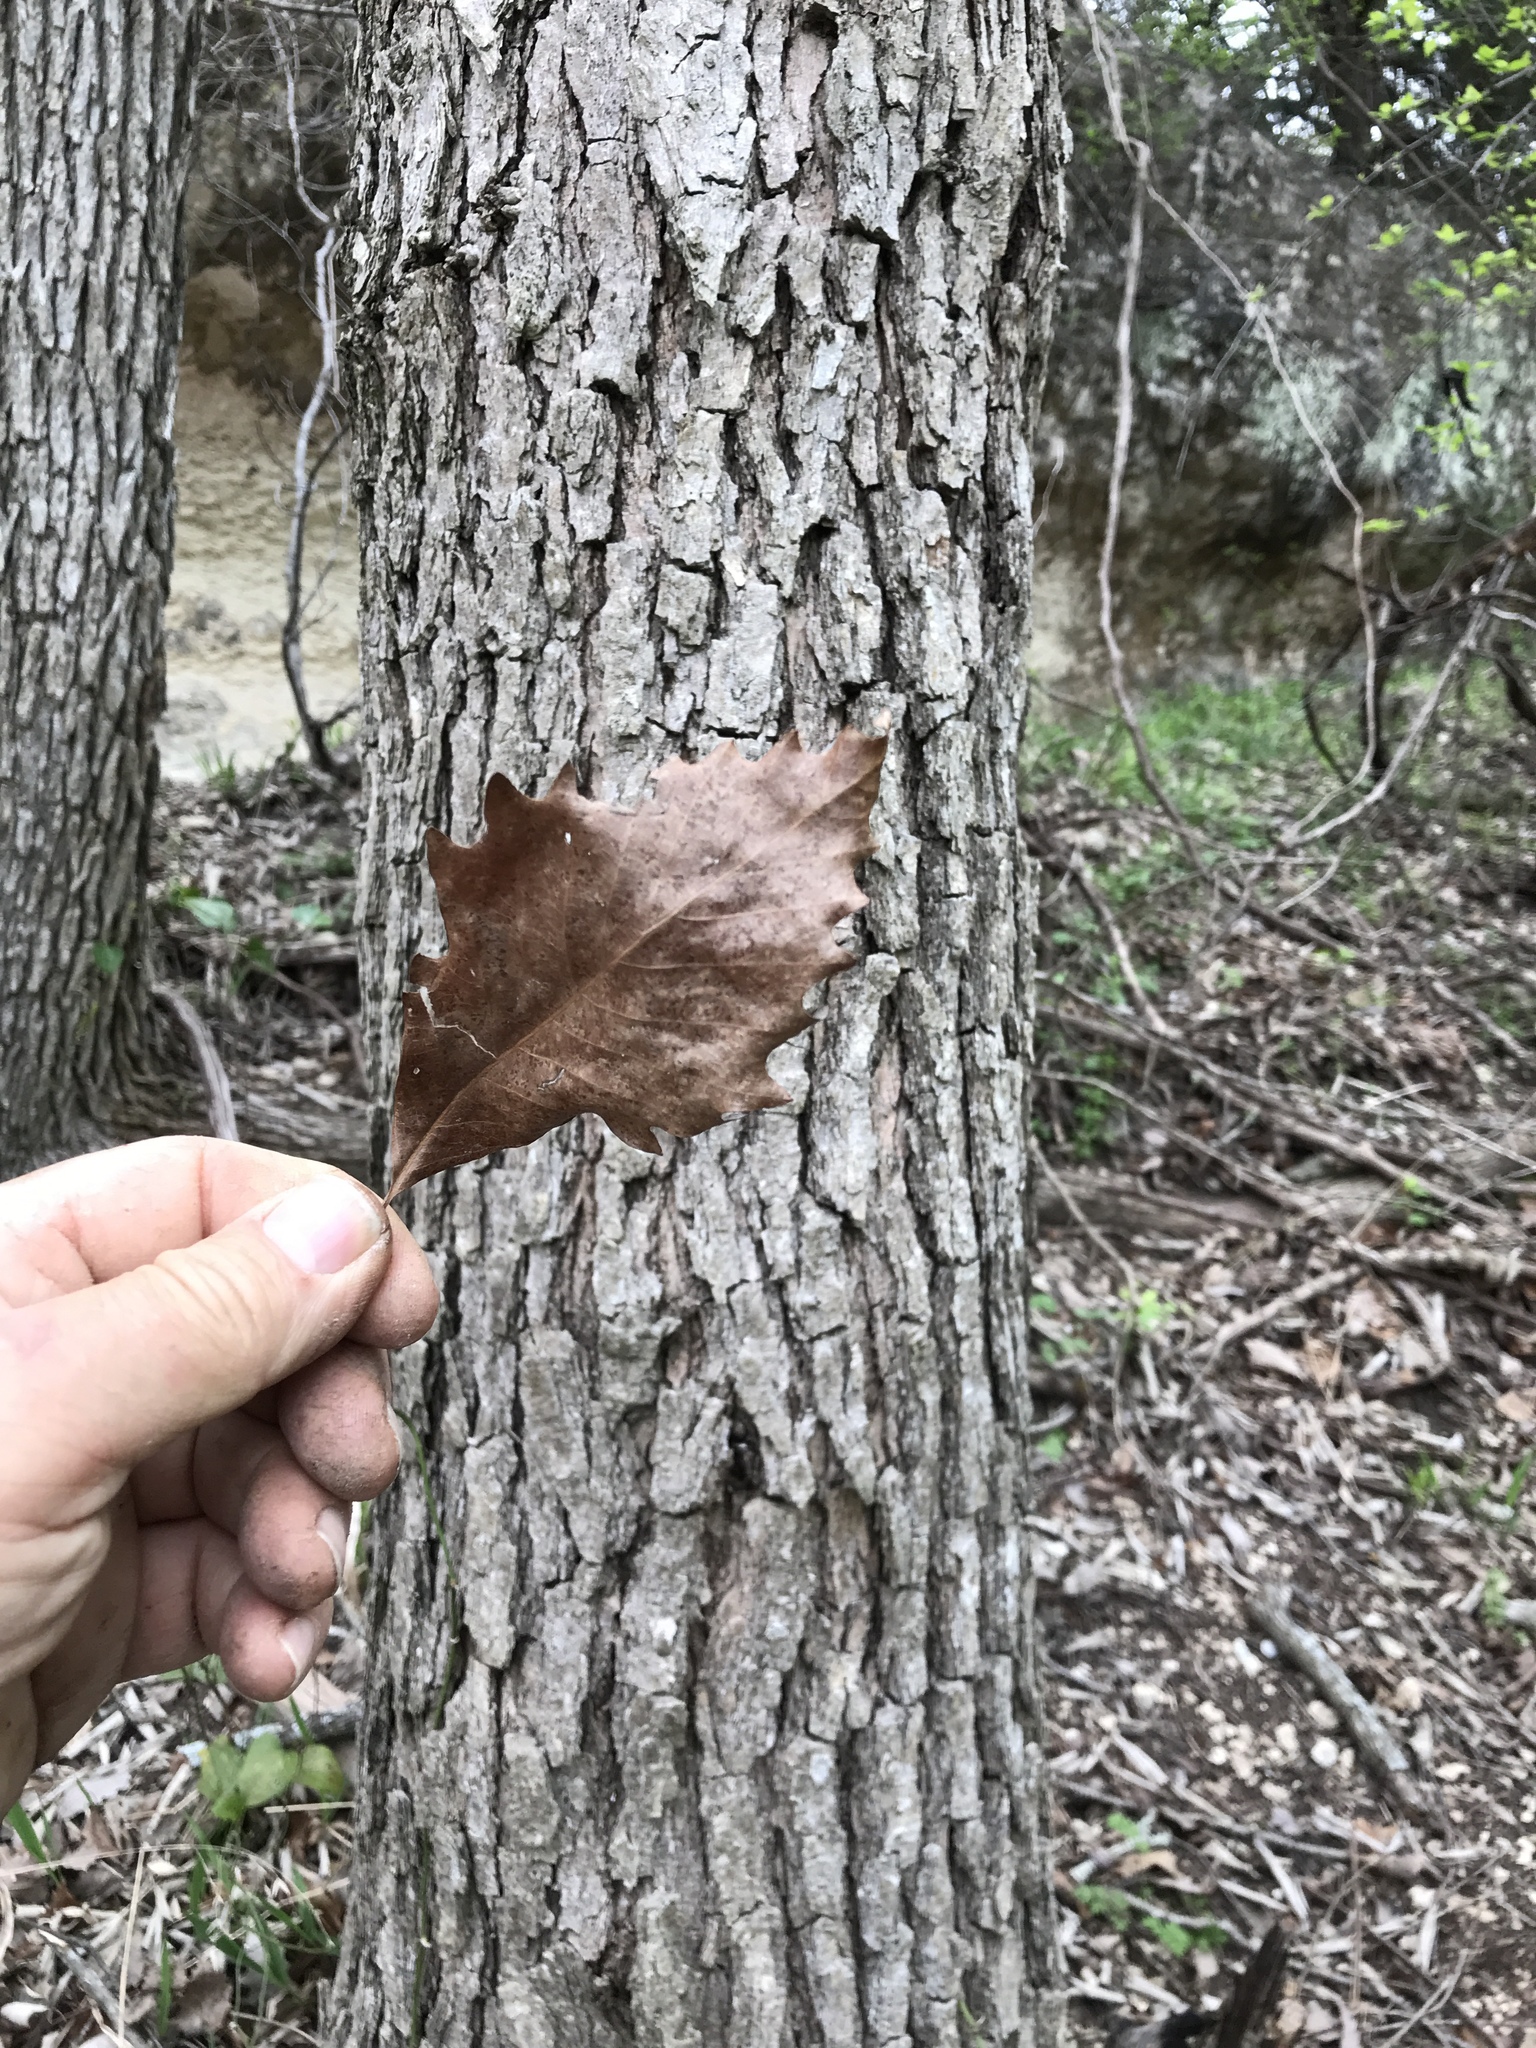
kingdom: Plantae
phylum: Tracheophyta
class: Magnoliopsida
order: Fagales
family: Fagaceae
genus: Quercus
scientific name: Quercus muehlenbergii
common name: Chinkapin oak
